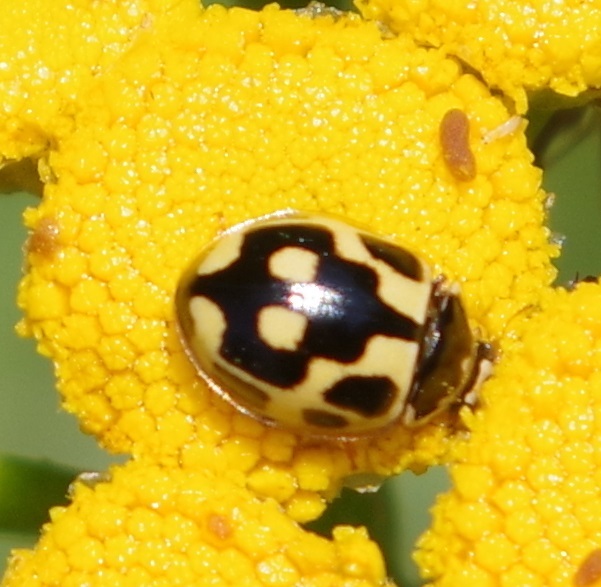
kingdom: Animalia
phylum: Arthropoda
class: Insecta
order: Coleoptera
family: Coccinellidae
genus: Propylaea
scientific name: Propylaea quatuordecimpunctata
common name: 14-spotted ladybird beetle
